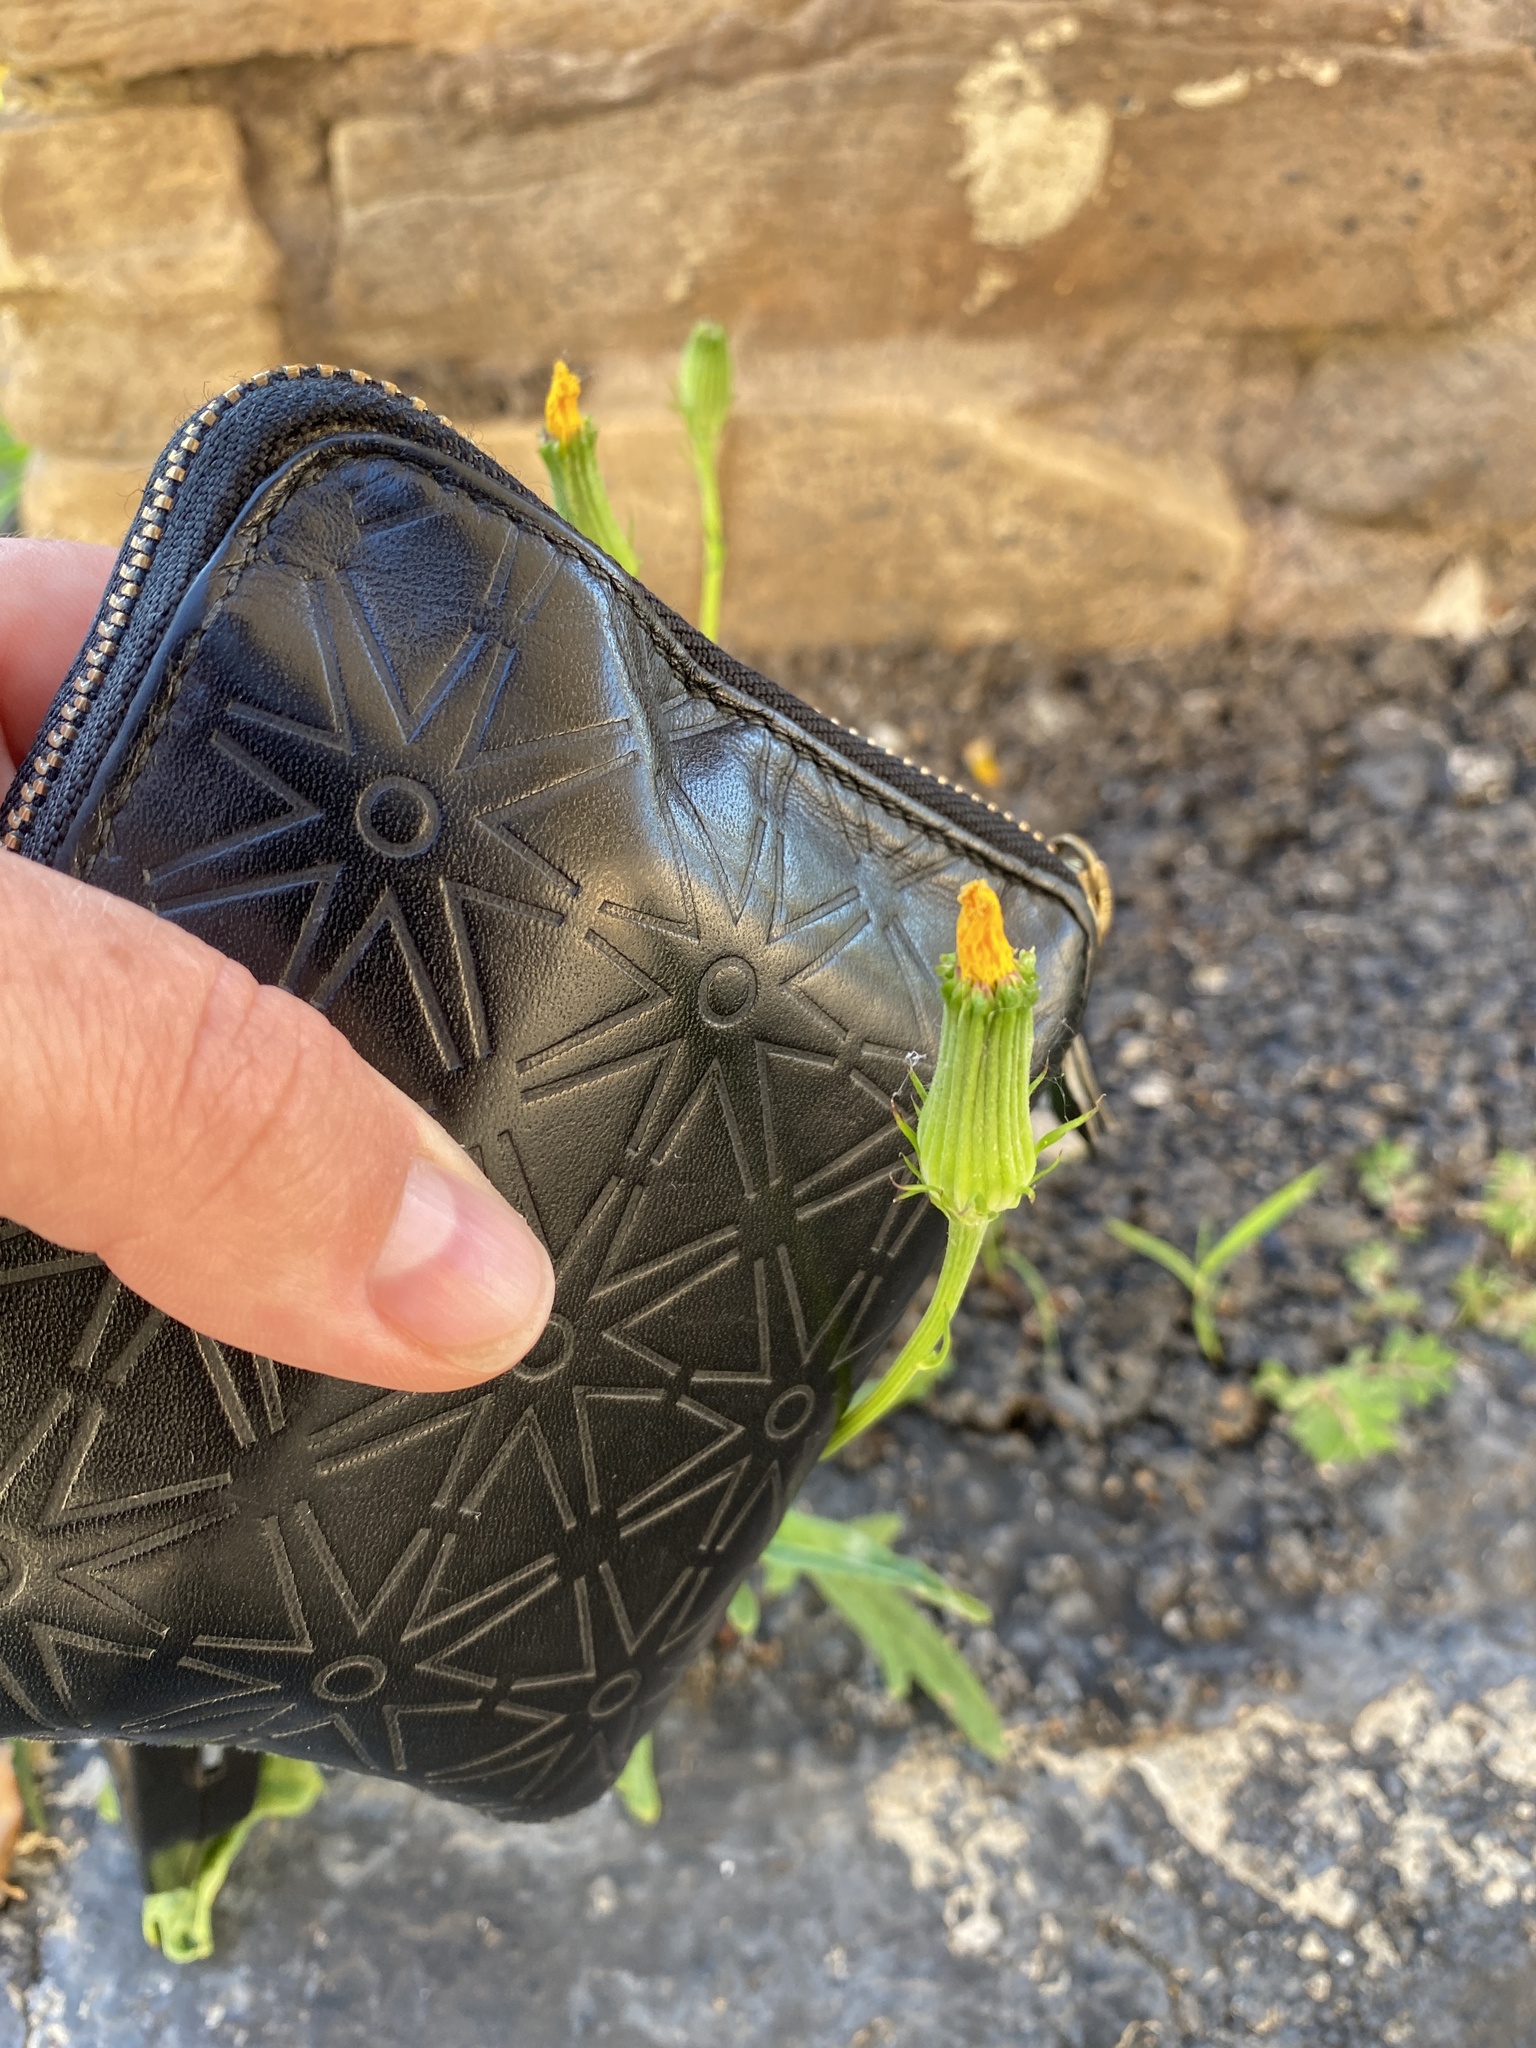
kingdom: Plantae
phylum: Tracheophyta
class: Magnoliopsida
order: Asterales
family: Asteraceae
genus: Pyrrhopappus
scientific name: Pyrrhopappus carolinianus
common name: Carolina desert-chicory
